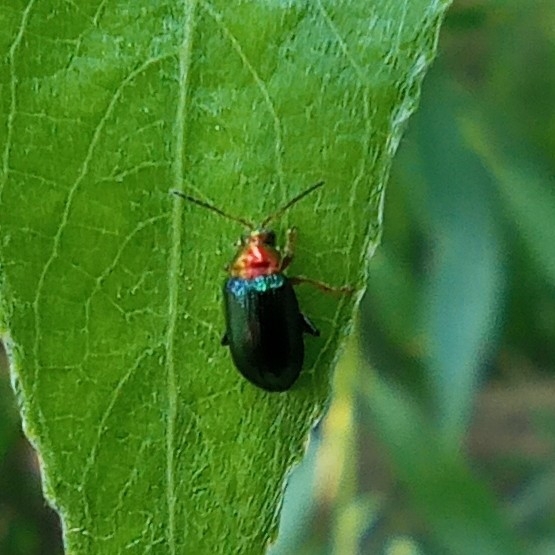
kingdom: Animalia
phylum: Arthropoda
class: Insecta
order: Coleoptera
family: Chrysomelidae
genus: Crepidodera
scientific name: Crepidodera aurata
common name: Willow flea beetle
